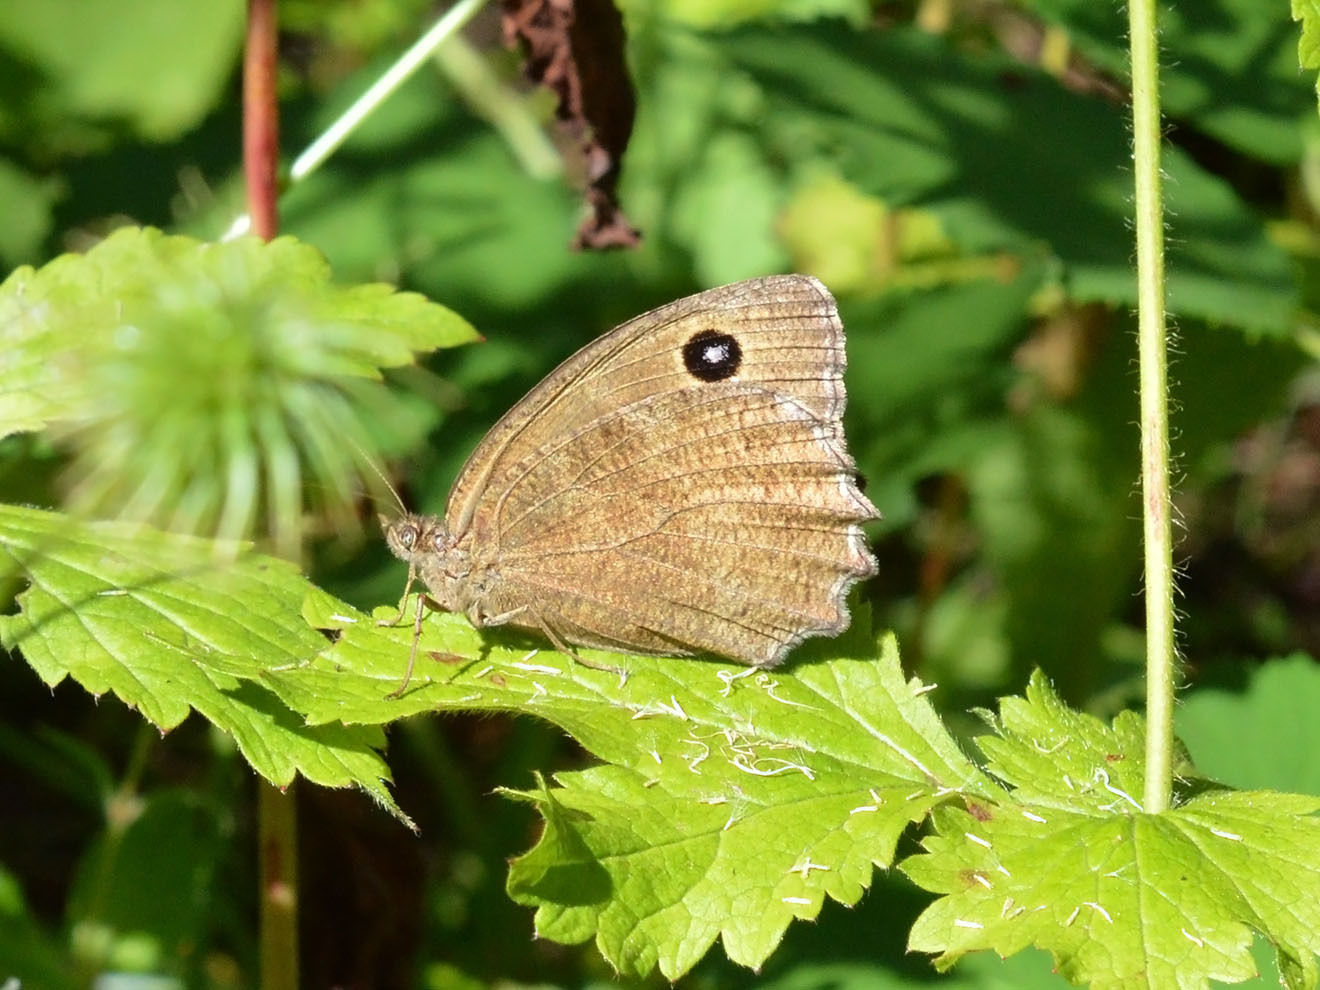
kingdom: Animalia
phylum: Arthropoda
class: Insecta
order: Lepidoptera
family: Nymphalidae
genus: Minois
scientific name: Minois dryas
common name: Dryad
